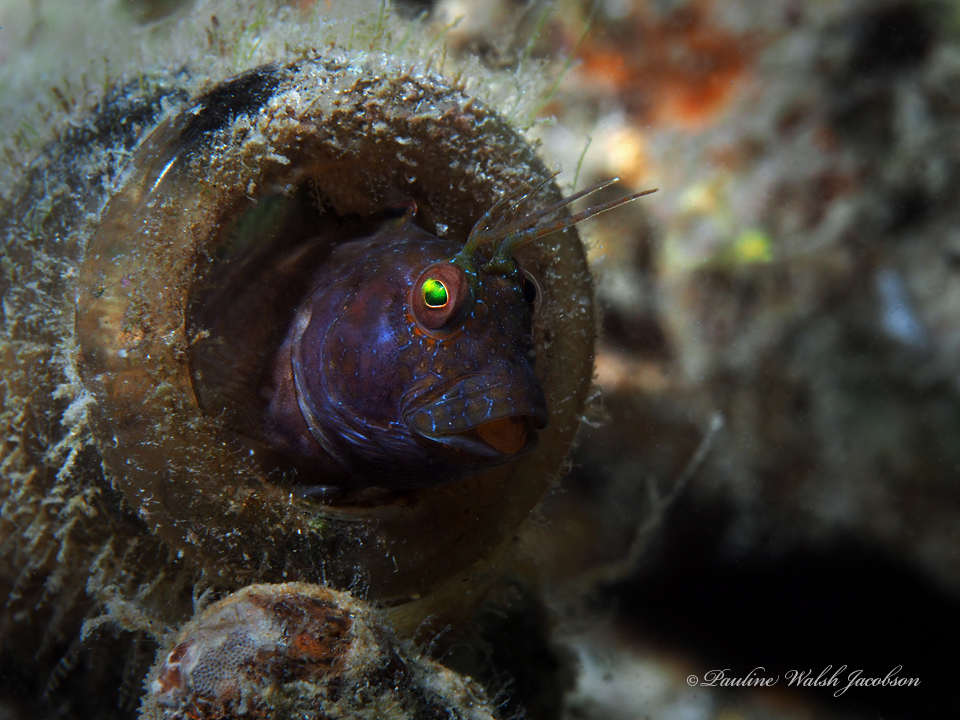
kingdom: Animalia
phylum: Chordata
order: Perciformes
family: Blenniidae
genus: Parablennius
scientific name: Parablennius marmoreus
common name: Seaweed blenny
